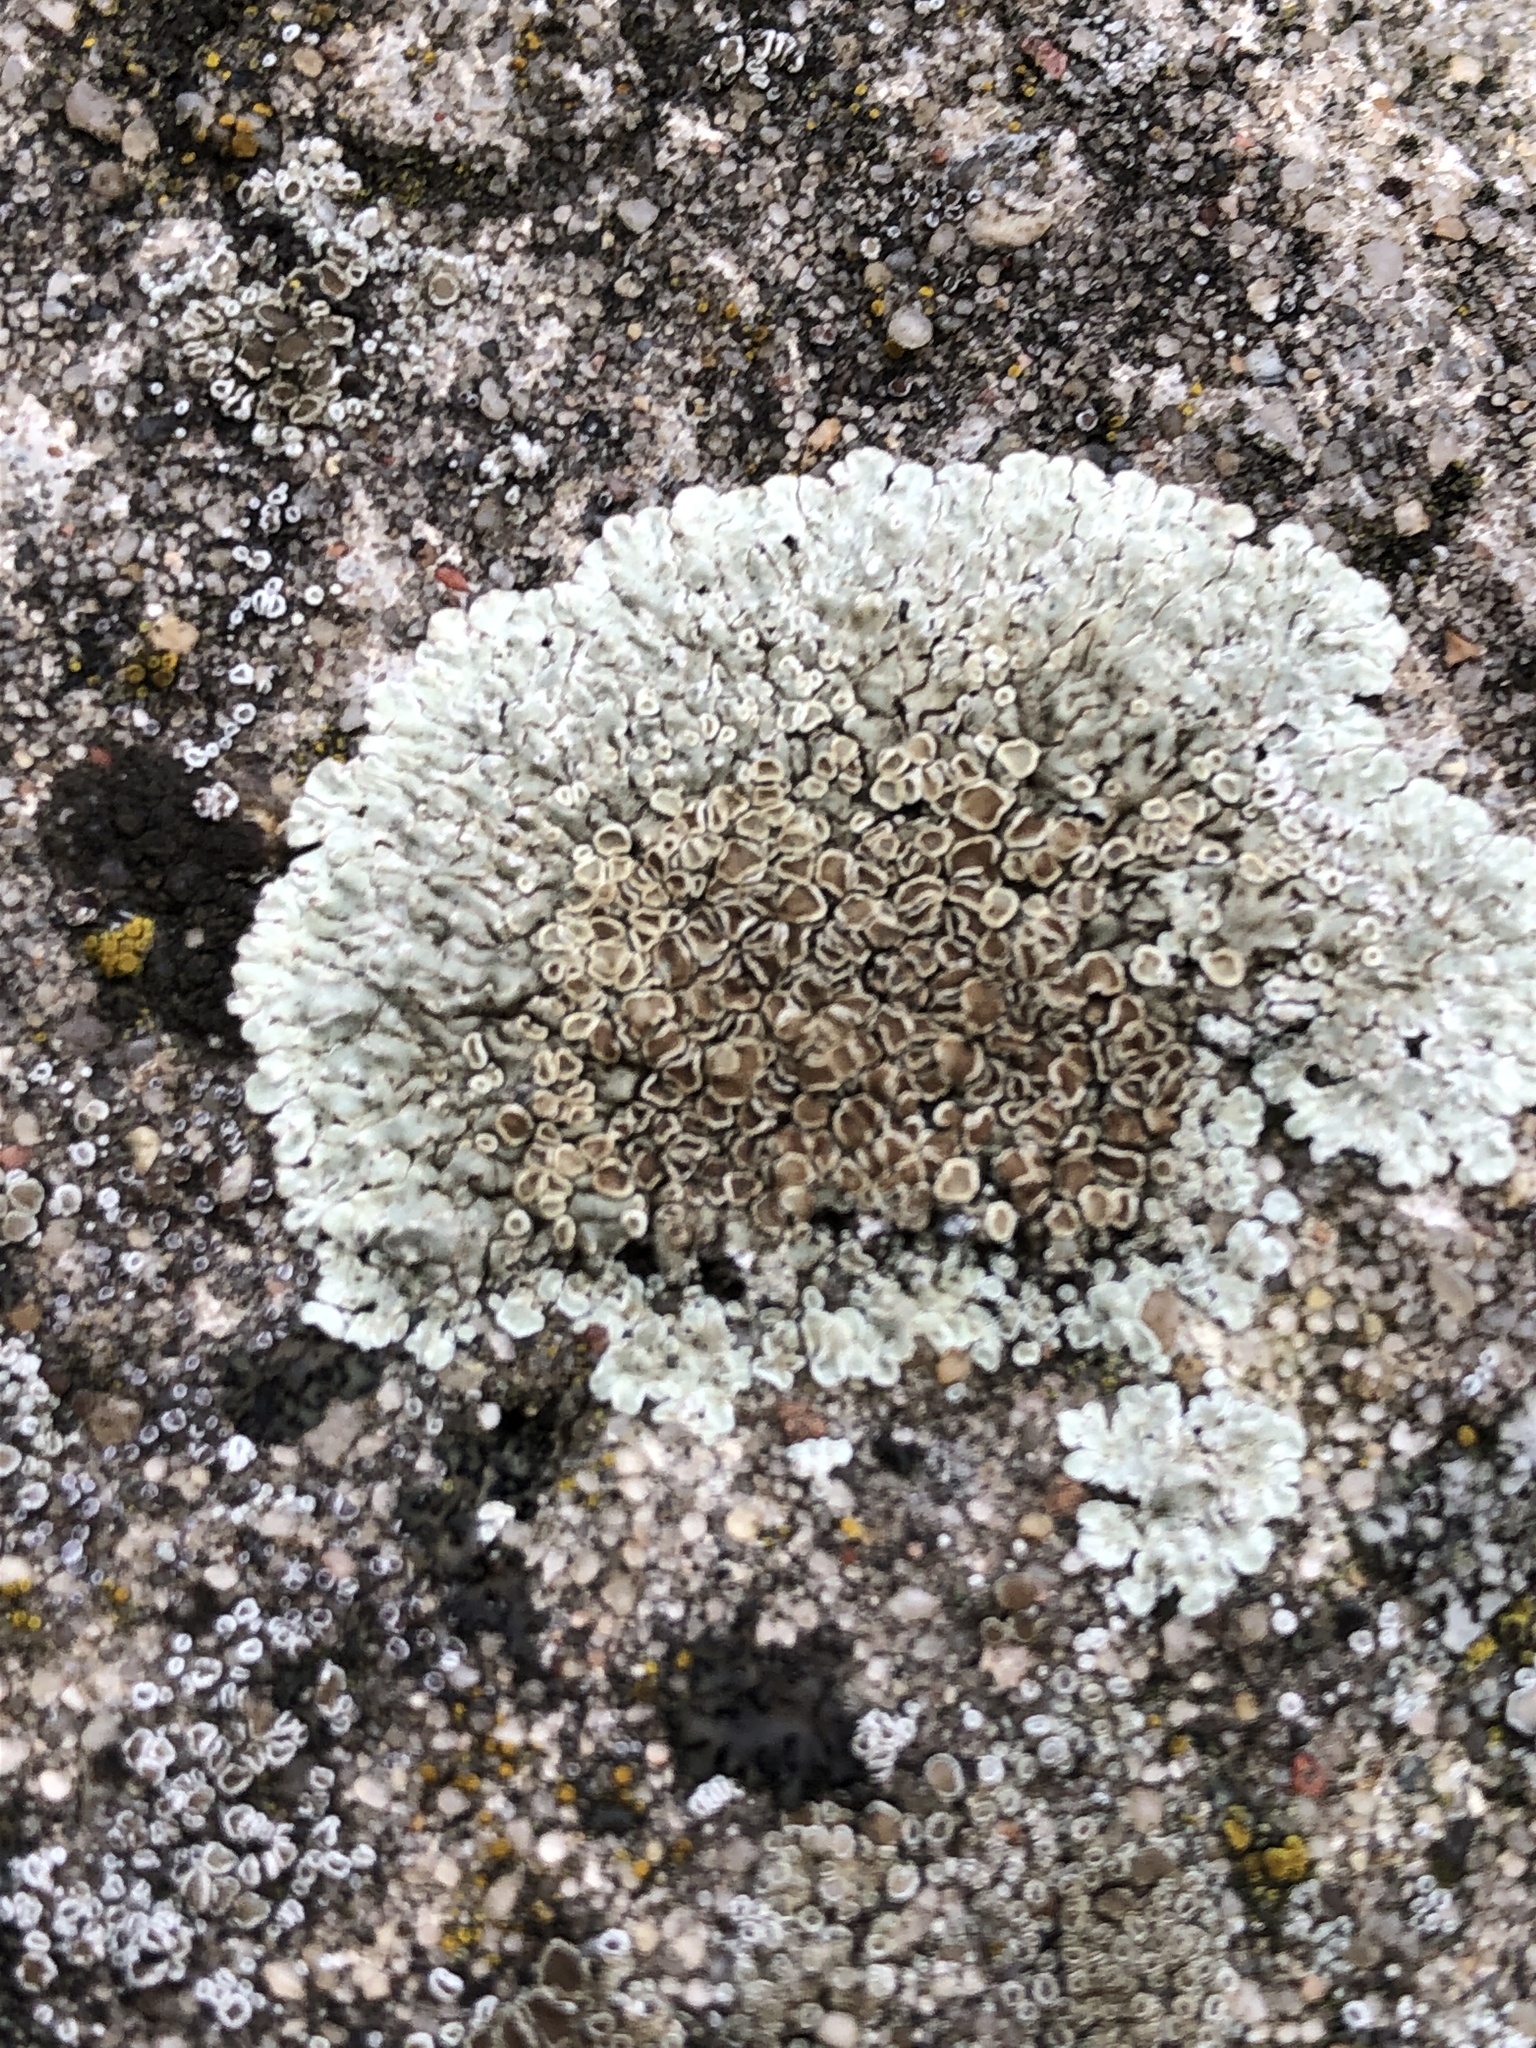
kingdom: Fungi
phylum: Ascomycota
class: Lecanoromycetes
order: Lecanorales
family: Lecanoraceae
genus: Protoparmeliopsis
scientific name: Protoparmeliopsis muralis
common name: Stonewall rim lichen
